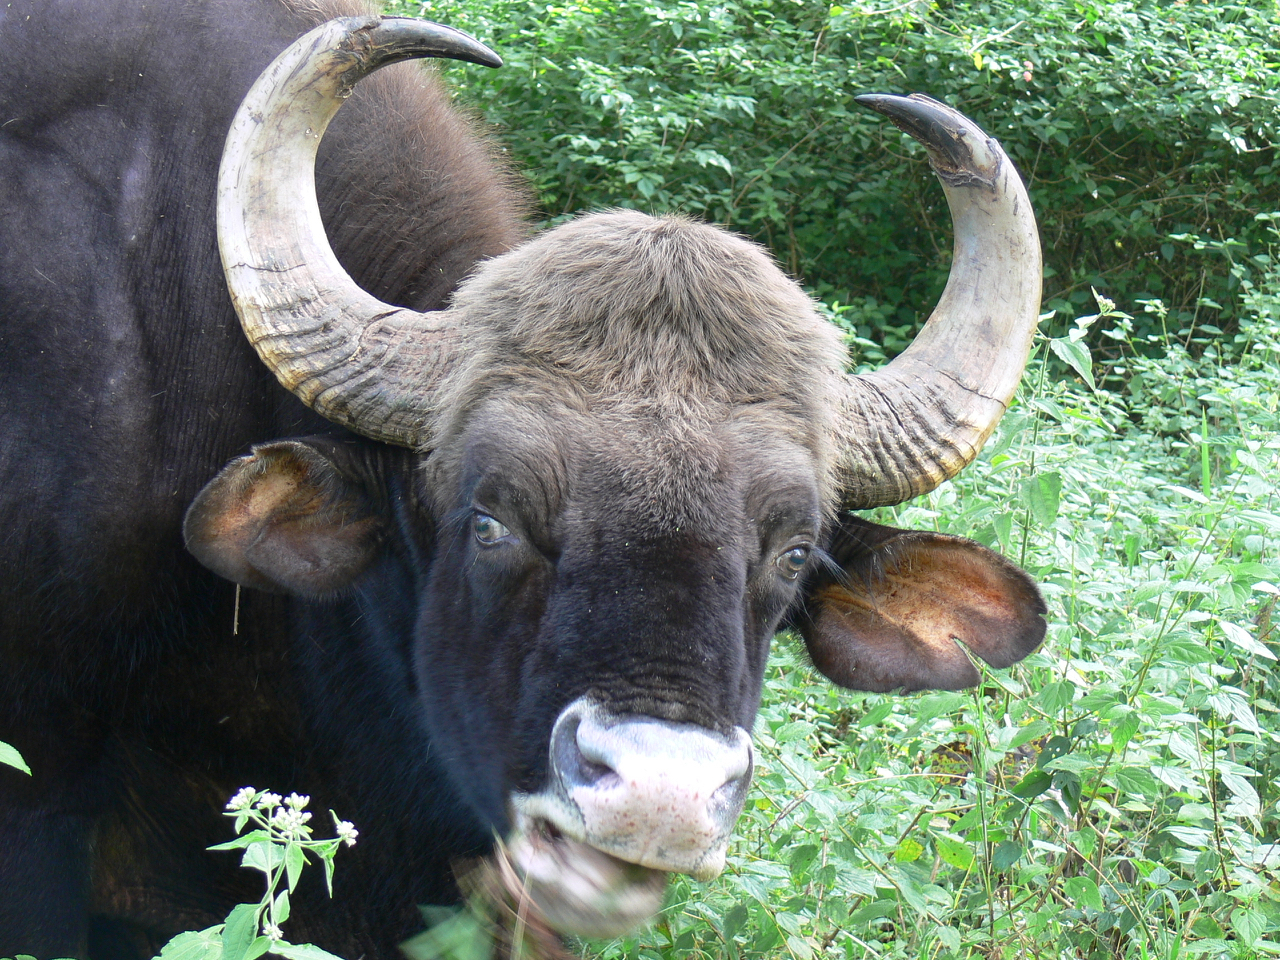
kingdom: Animalia
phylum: Chordata
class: Mammalia
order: Artiodactyla
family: Bovidae
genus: Bos
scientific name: Bos frontalis
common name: Gaur
